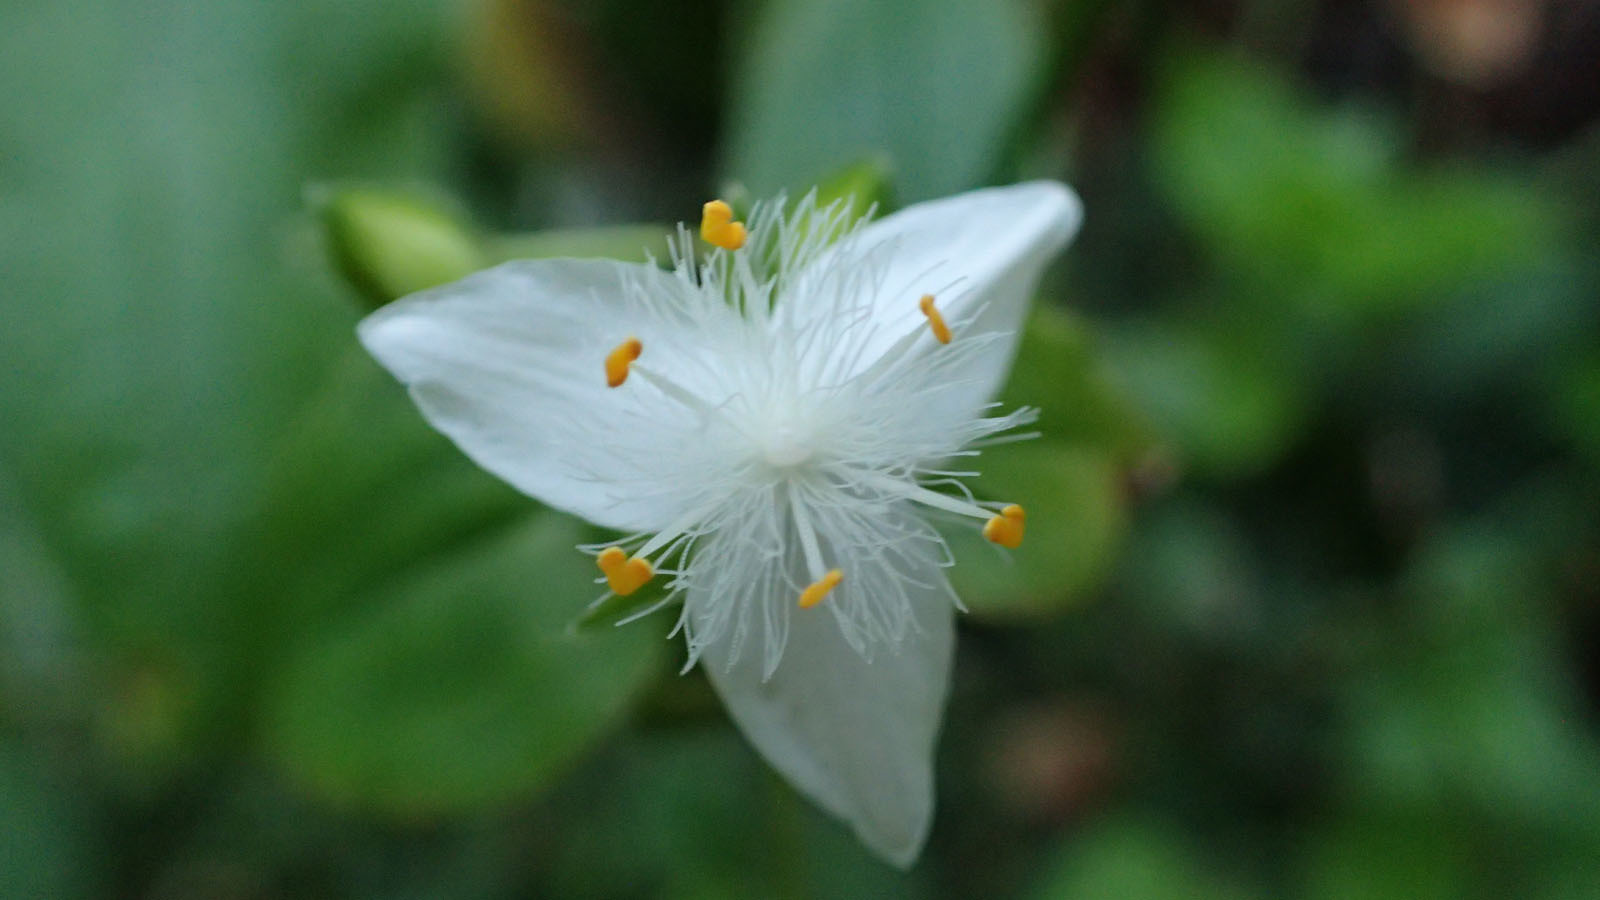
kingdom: Plantae
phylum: Tracheophyta
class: Liliopsida
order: Commelinales
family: Commelinaceae
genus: Tradescantia
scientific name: Tradescantia fluminensis
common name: Wandering-jew
